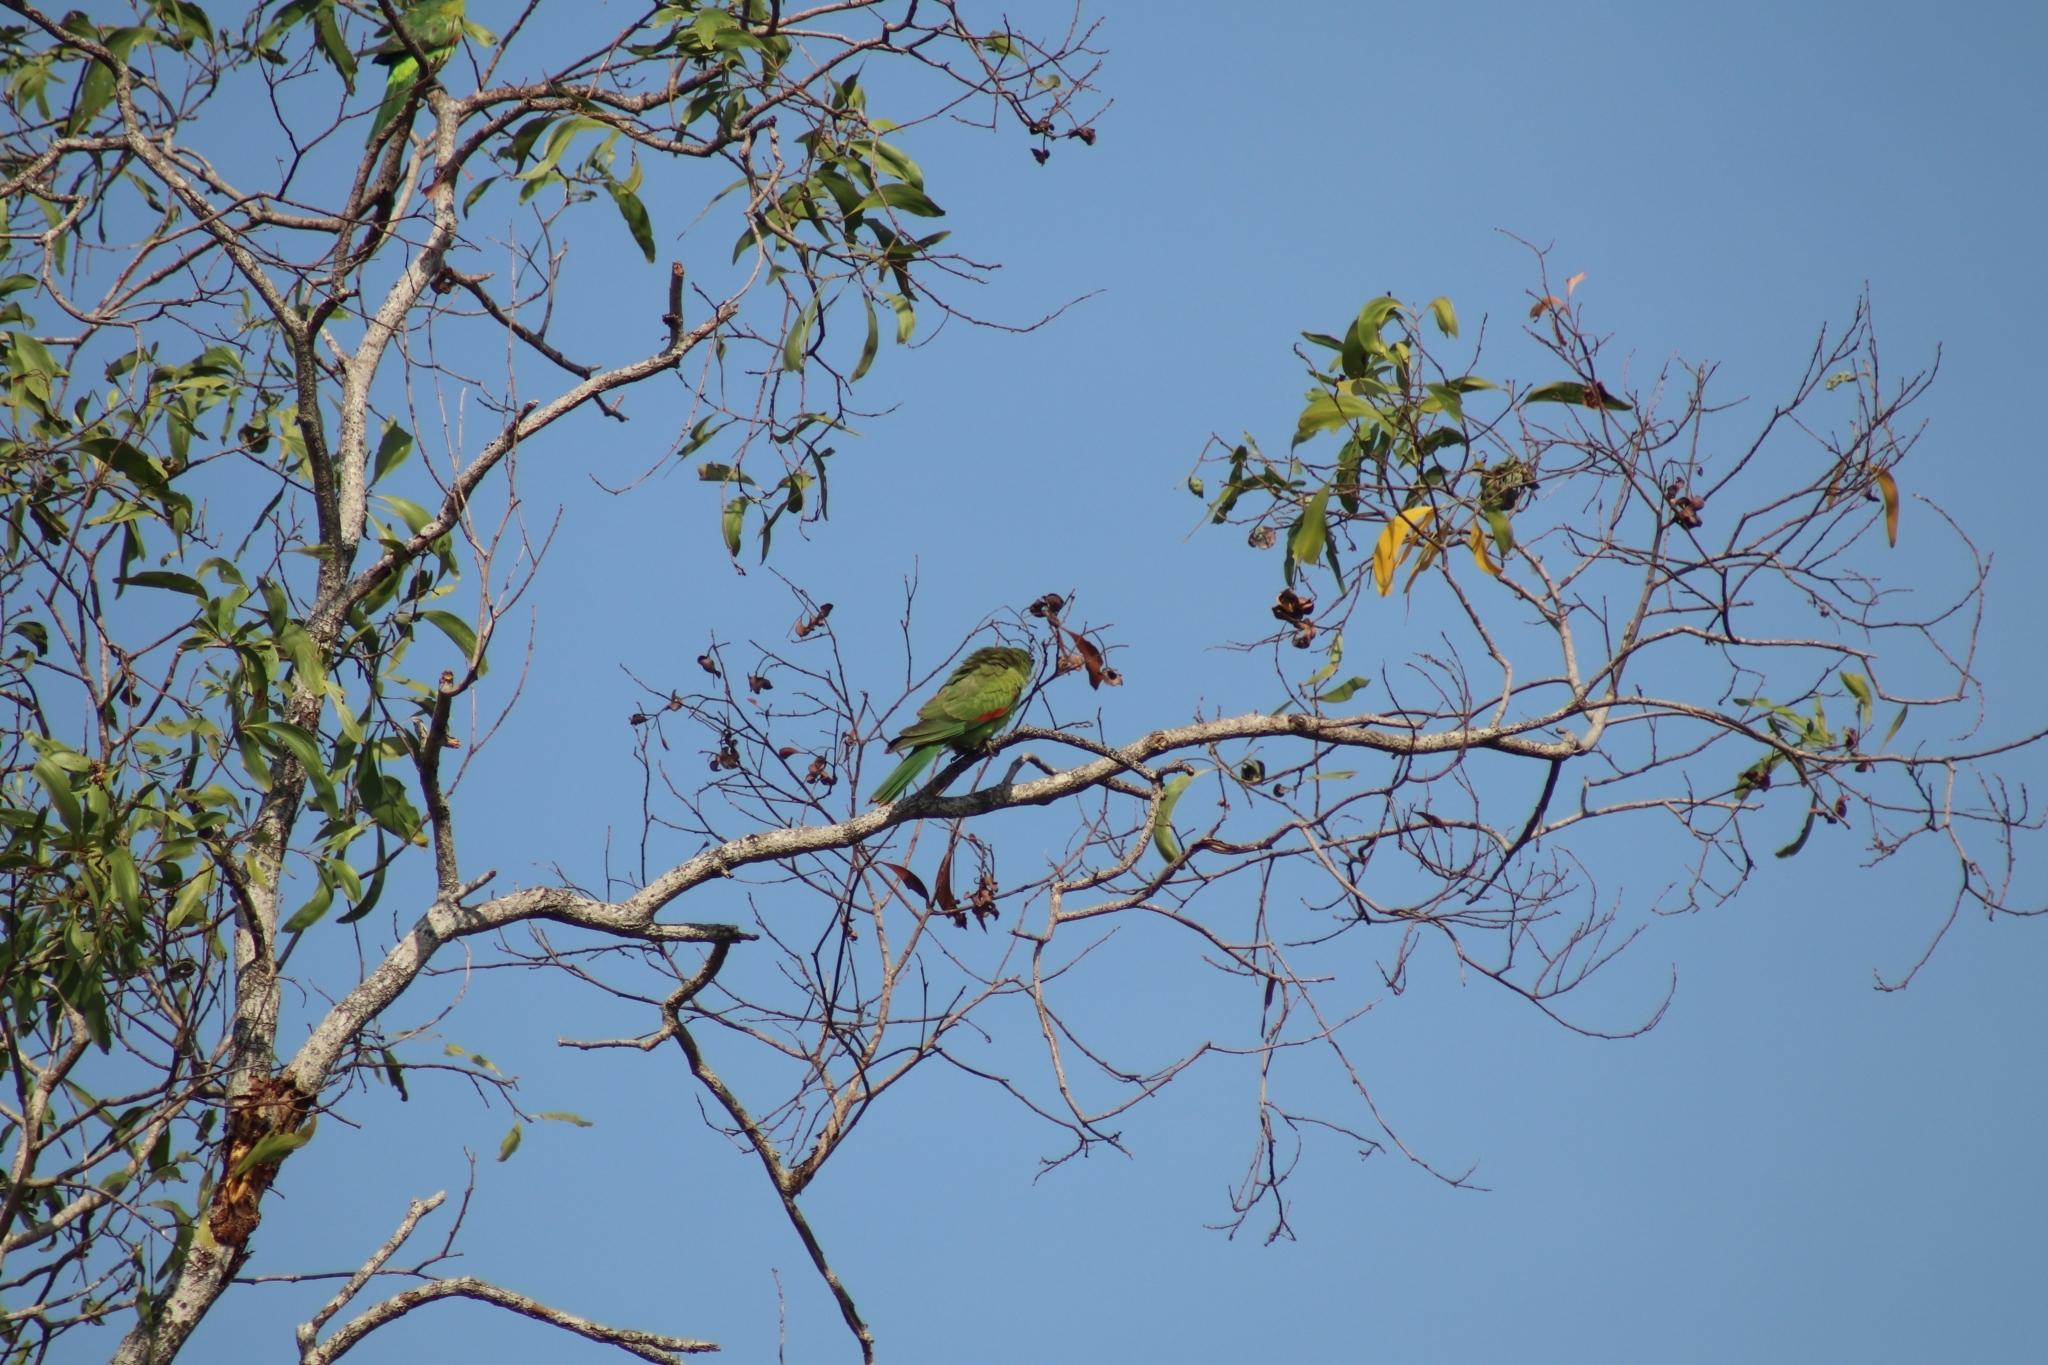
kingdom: Animalia
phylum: Chordata
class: Aves
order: Psittaciformes
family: Psittacidae
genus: Aprosmictus
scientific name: Aprosmictus erythropterus
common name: Red-winged parrot
